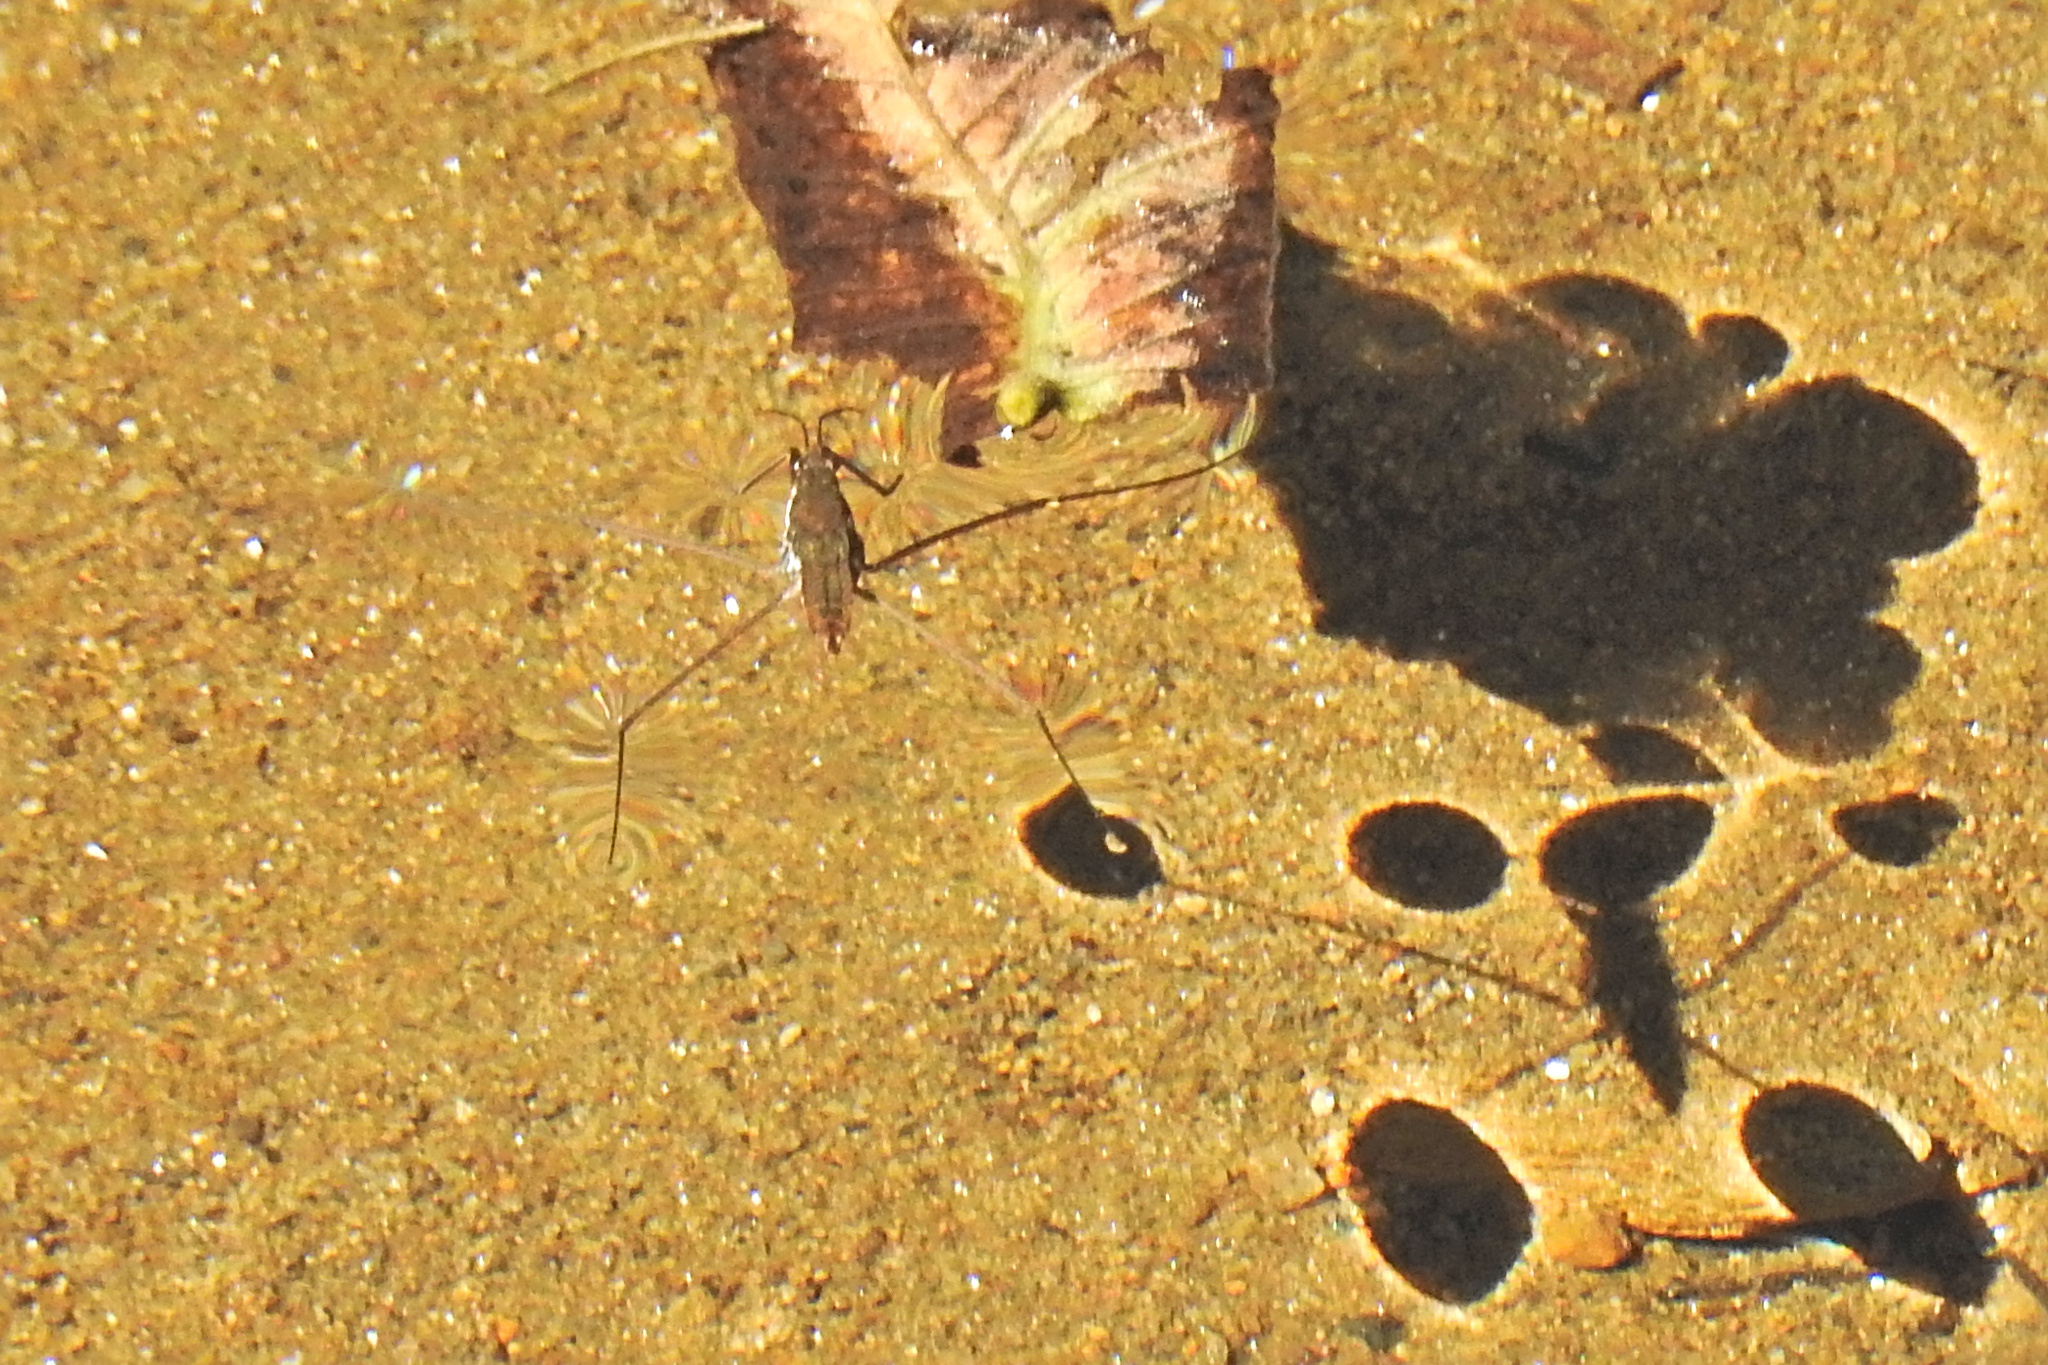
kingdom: Animalia
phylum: Arthropoda
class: Insecta
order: Hemiptera
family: Gerridae
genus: Aquarius
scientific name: Aquarius
